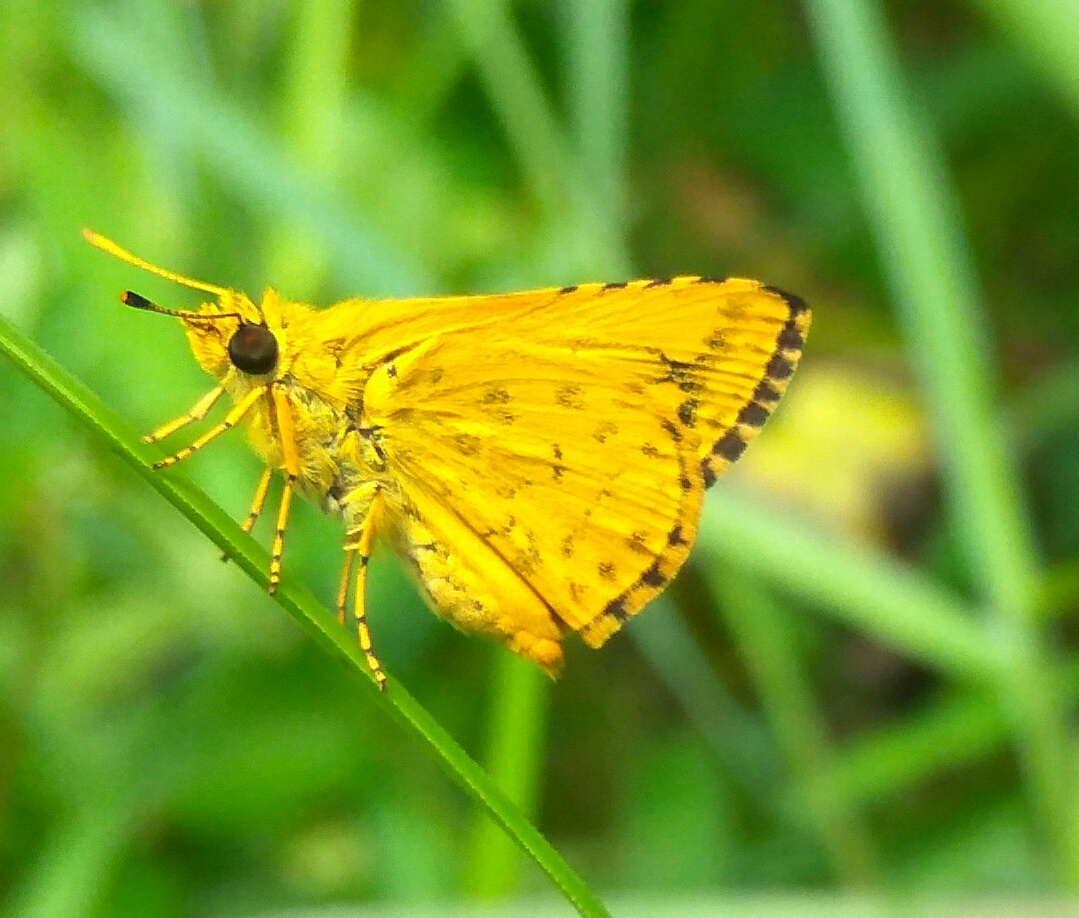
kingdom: Animalia
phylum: Arthropoda
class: Insecta
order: Lepidoptera
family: Hesperiidae
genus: Ampittia
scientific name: Ampittia dioscorides
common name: Common bush hopper
